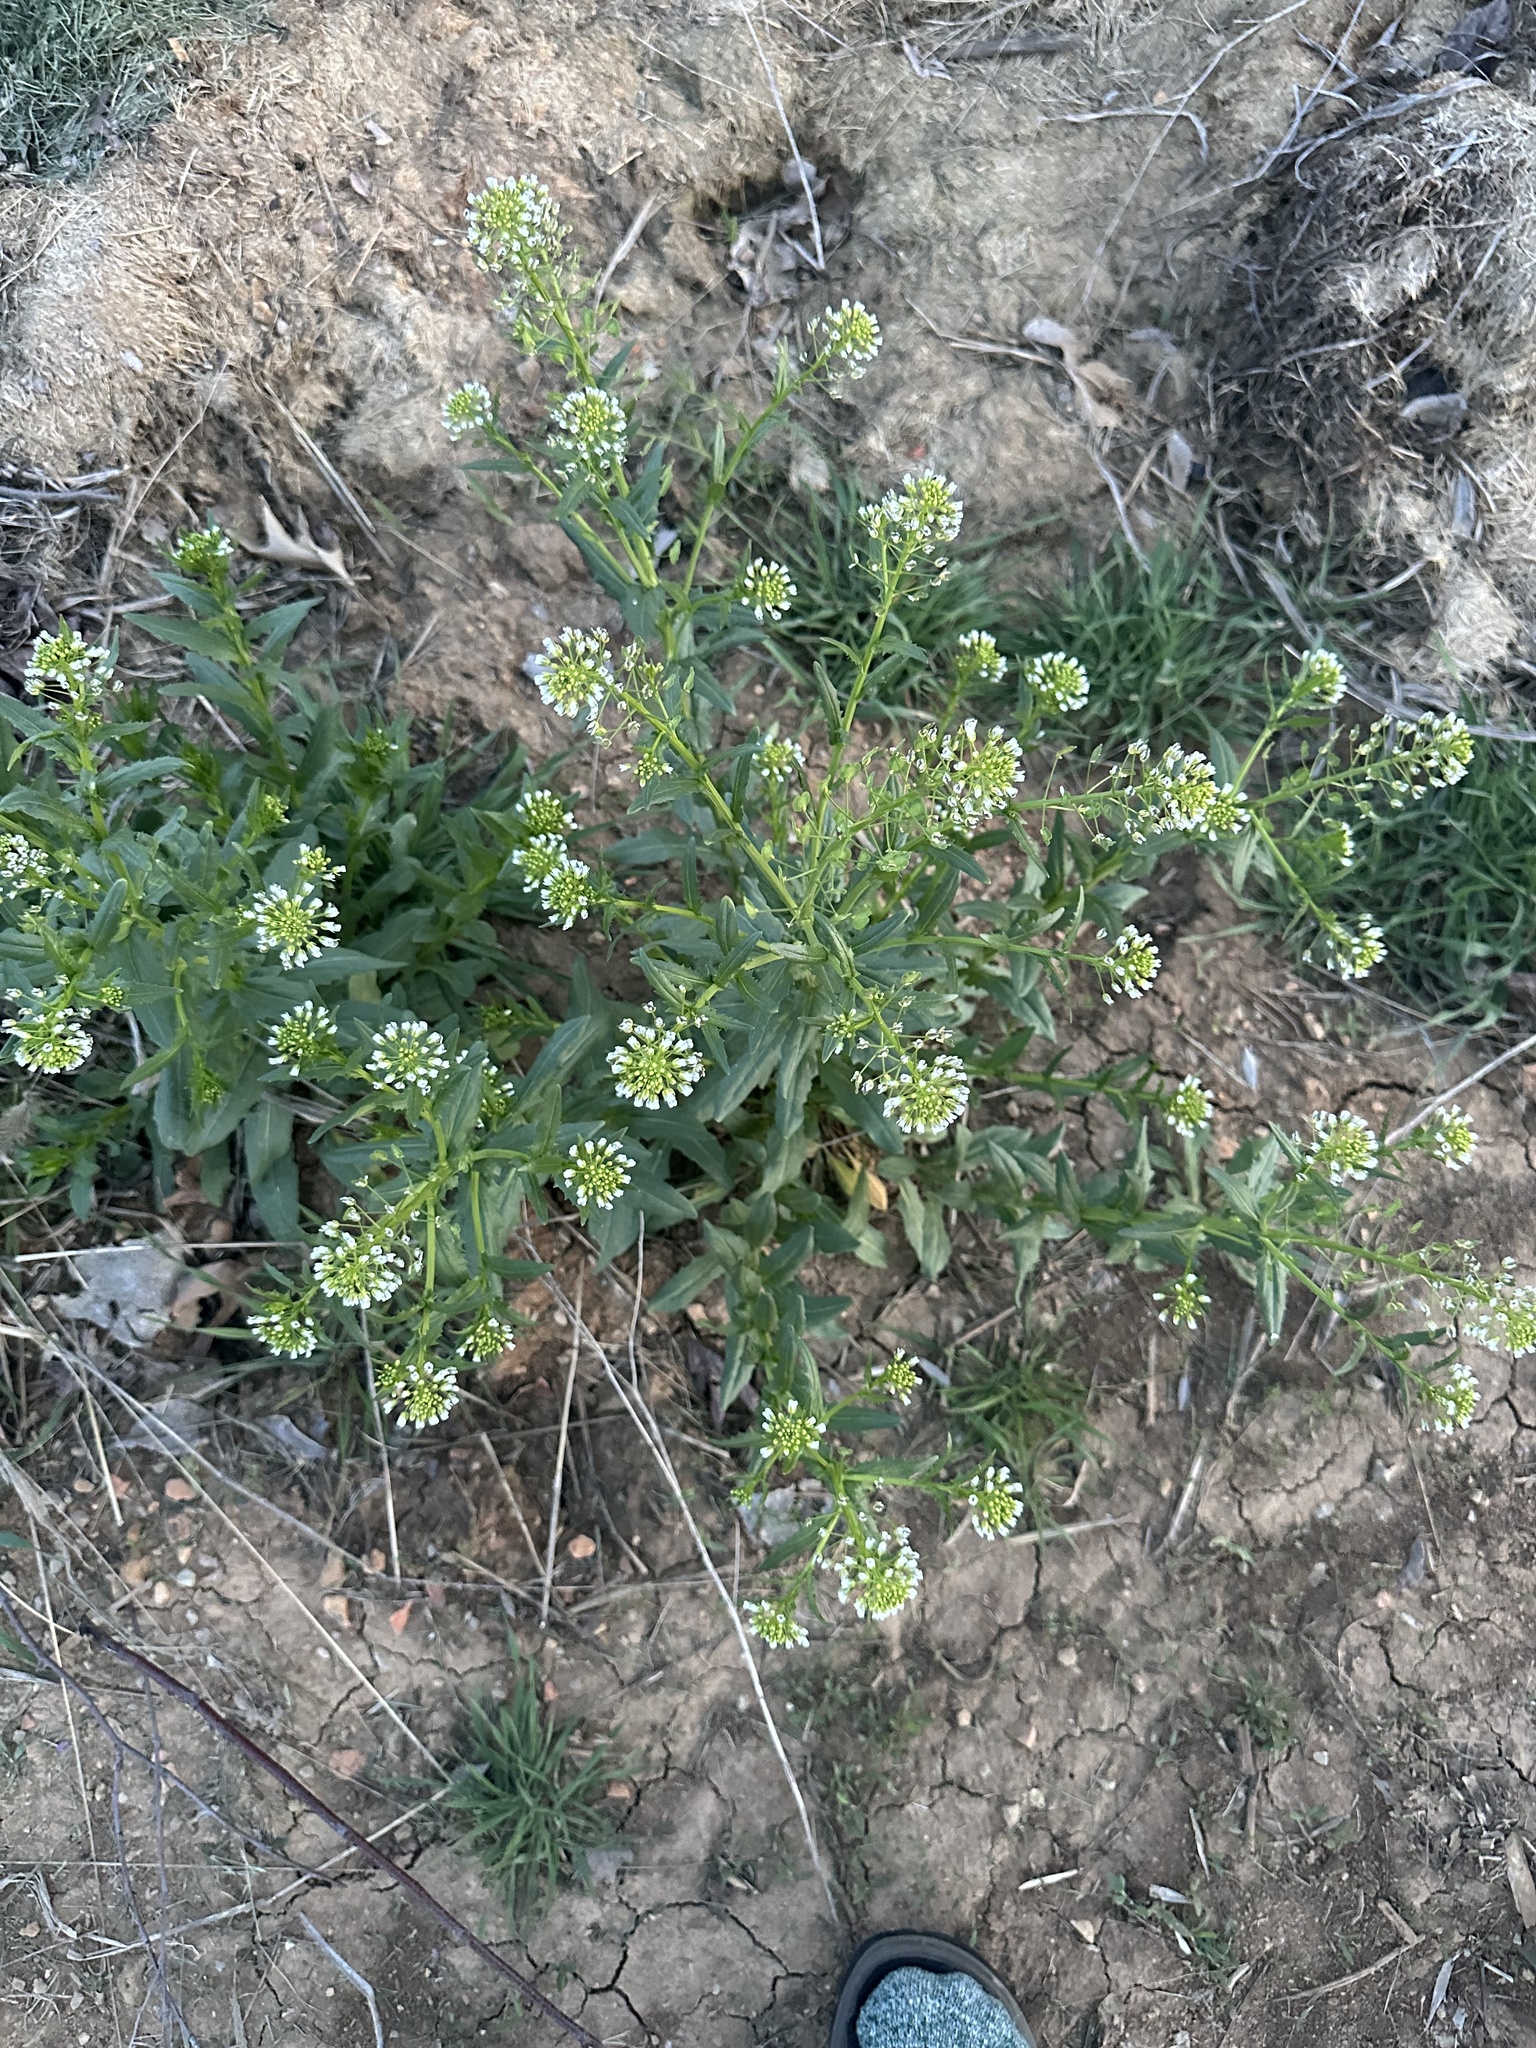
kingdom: Plantae
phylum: Tracheophyta
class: Magnoliopsida
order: Brassicales
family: Brassicaceae
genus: Thlaspi
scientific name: Thlaspi arvense
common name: Field pennycress
